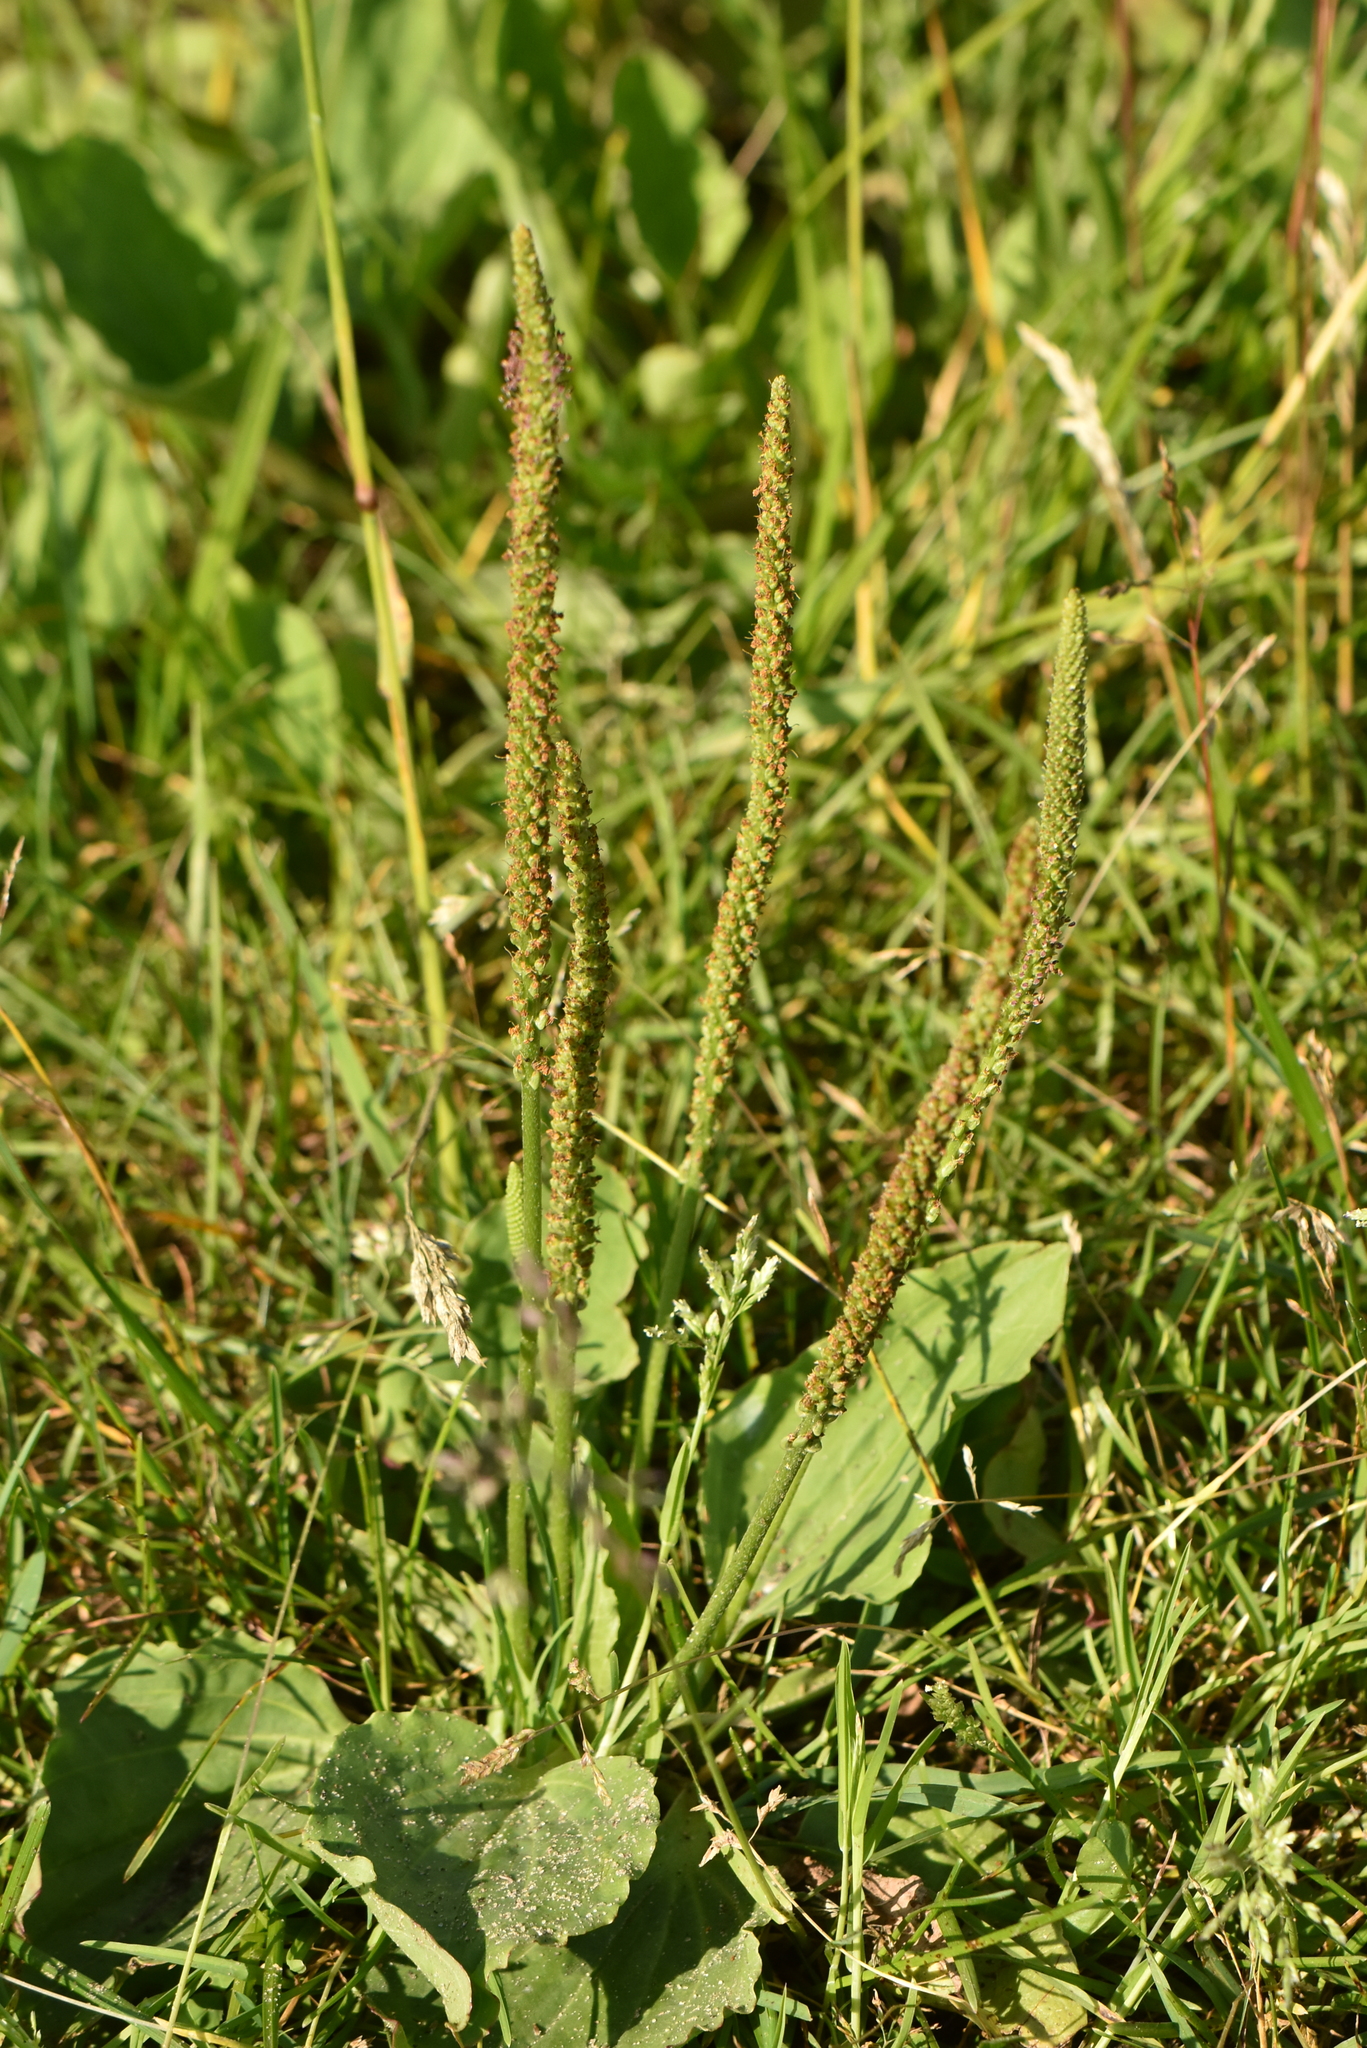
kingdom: Plantae
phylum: Tracheophyta
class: Magnoliopsida
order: Lamiales
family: Plantaginaceae
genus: Plantago
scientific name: Plantago major
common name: Common plantain
